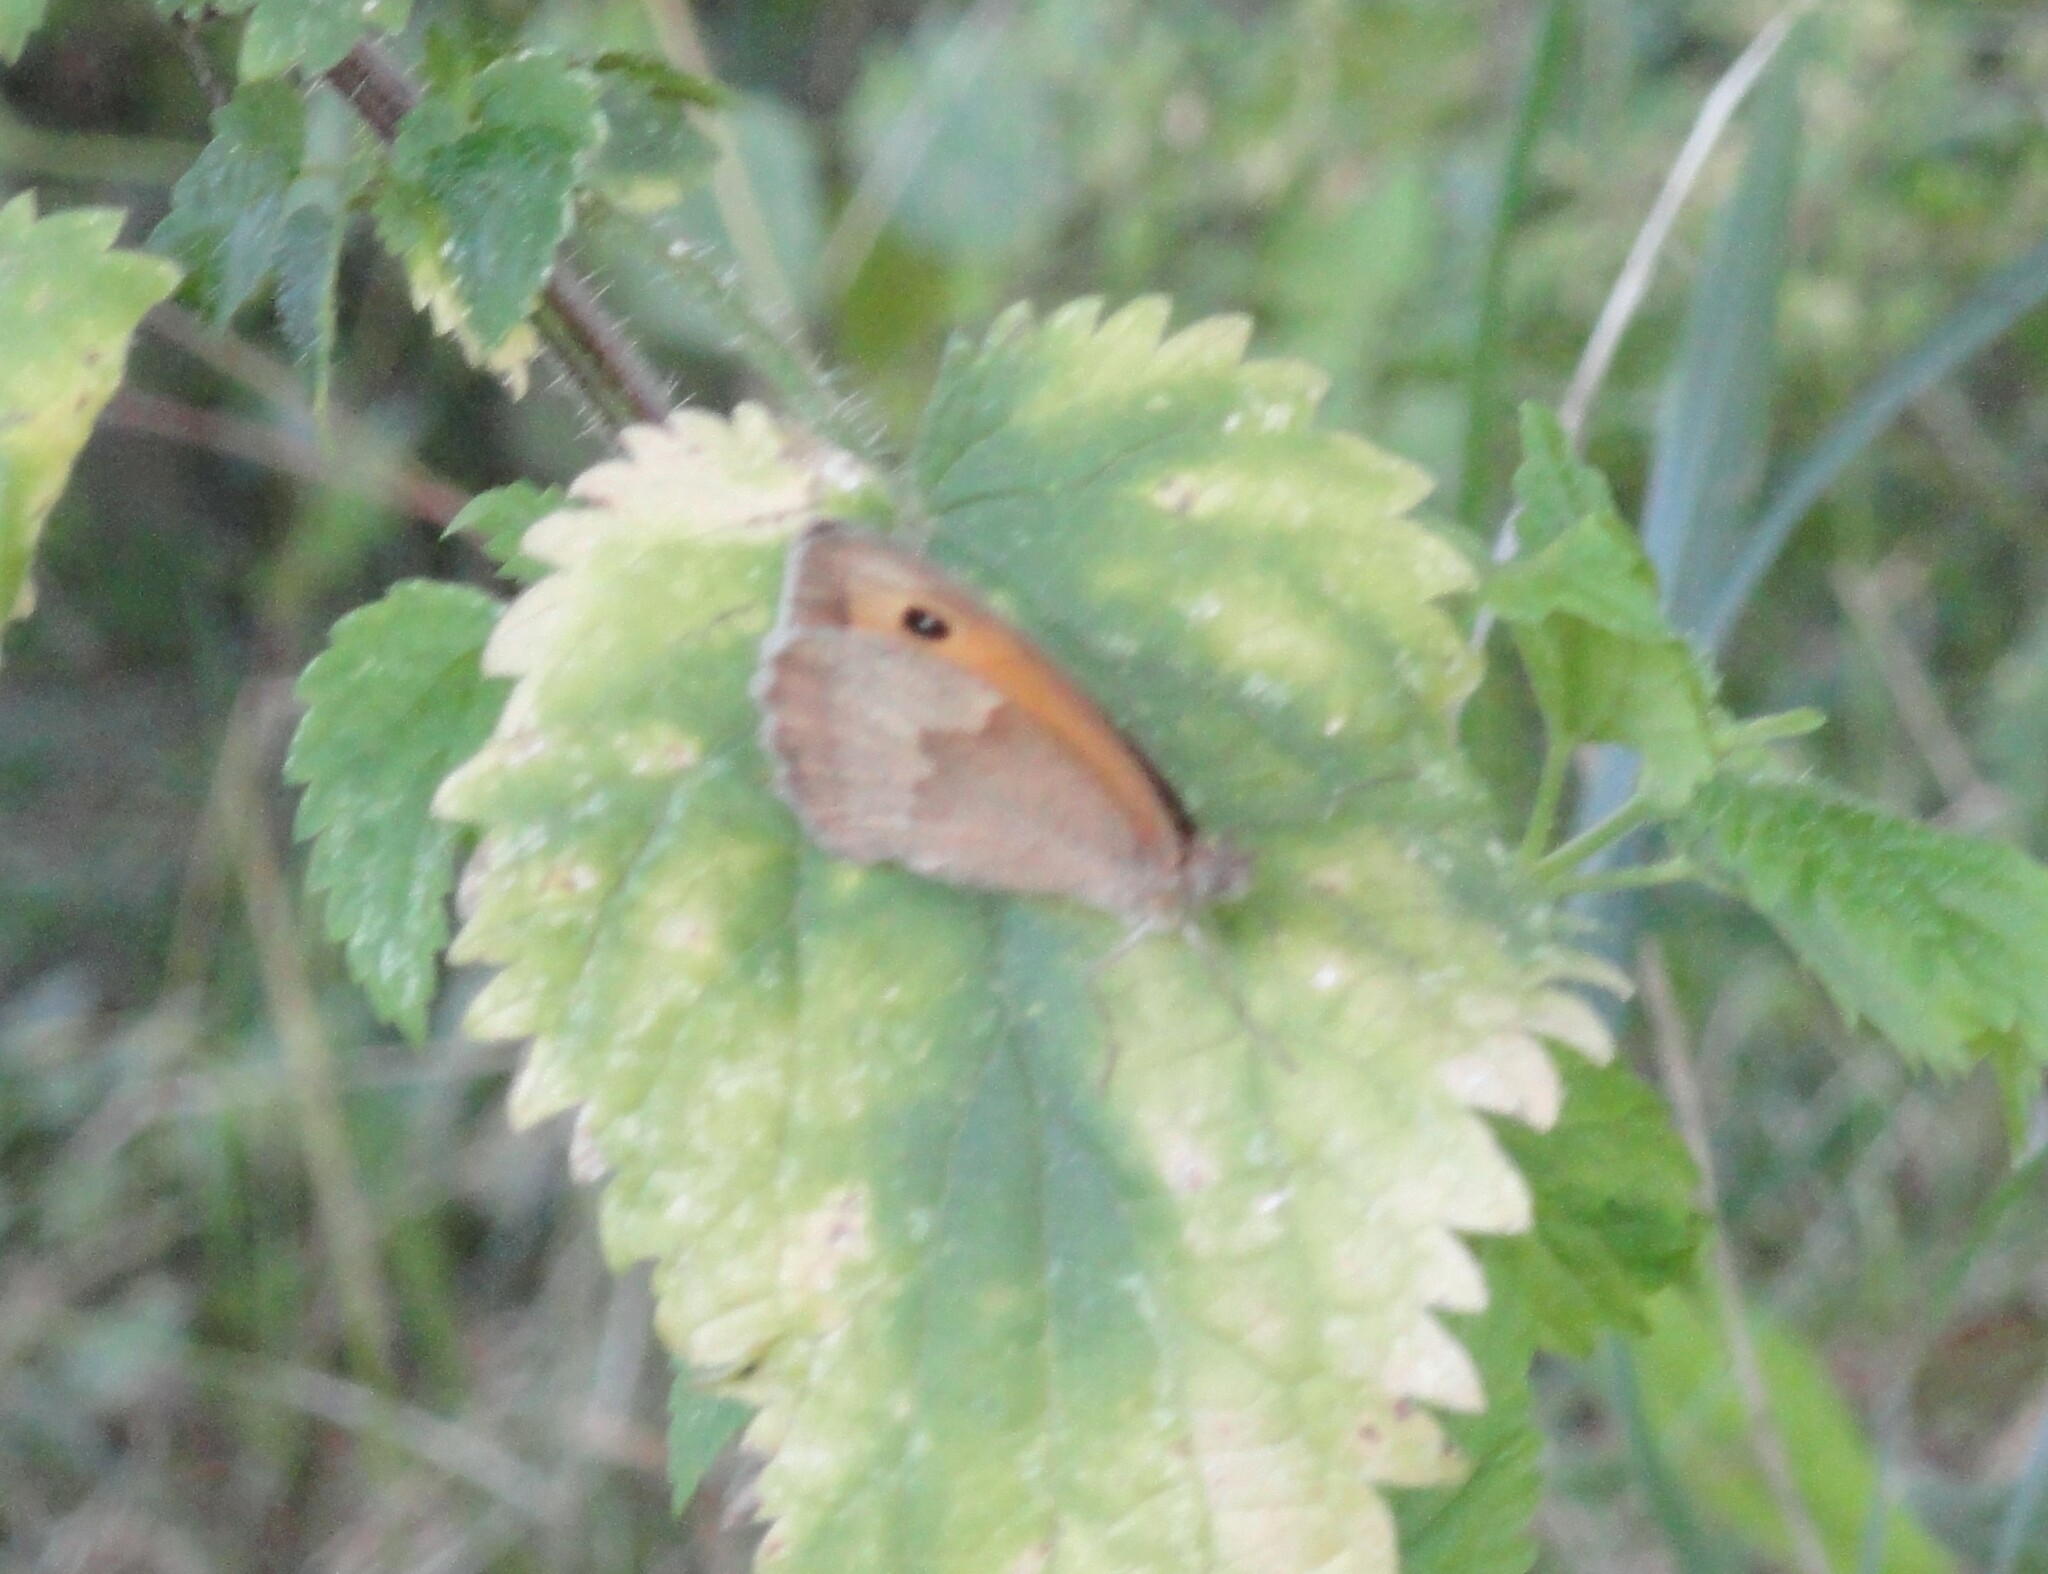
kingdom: Animalia
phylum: Arthropoda
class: Insecta
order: Lepidoptera
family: Nymphalidae
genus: Maniola
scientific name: Maniola jurtina
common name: Meadow brown
